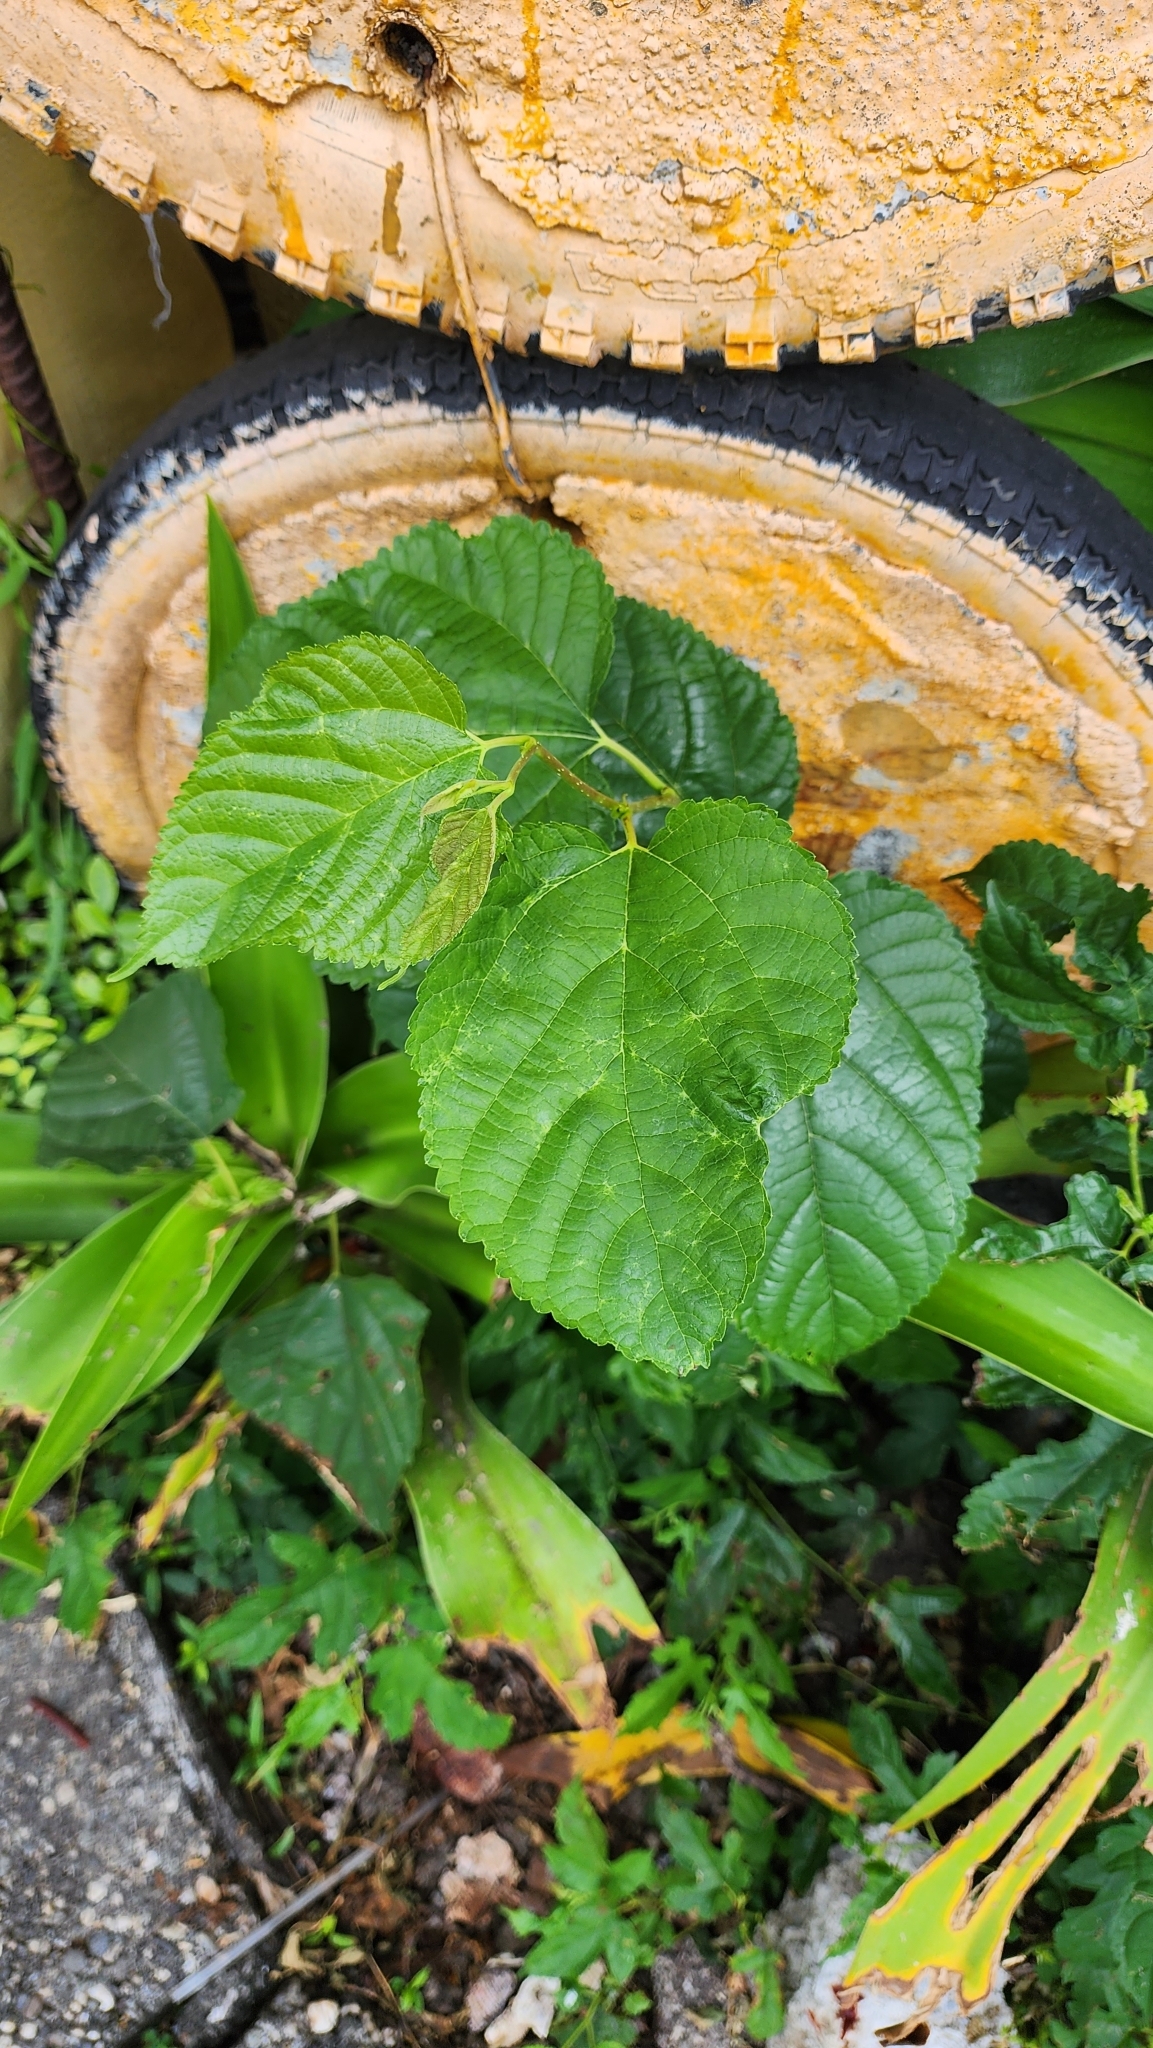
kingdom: Plantae
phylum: Tracheophyta
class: Magnoliopsida
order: Rosales
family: Moraceae
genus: Morus
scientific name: Morus indica
